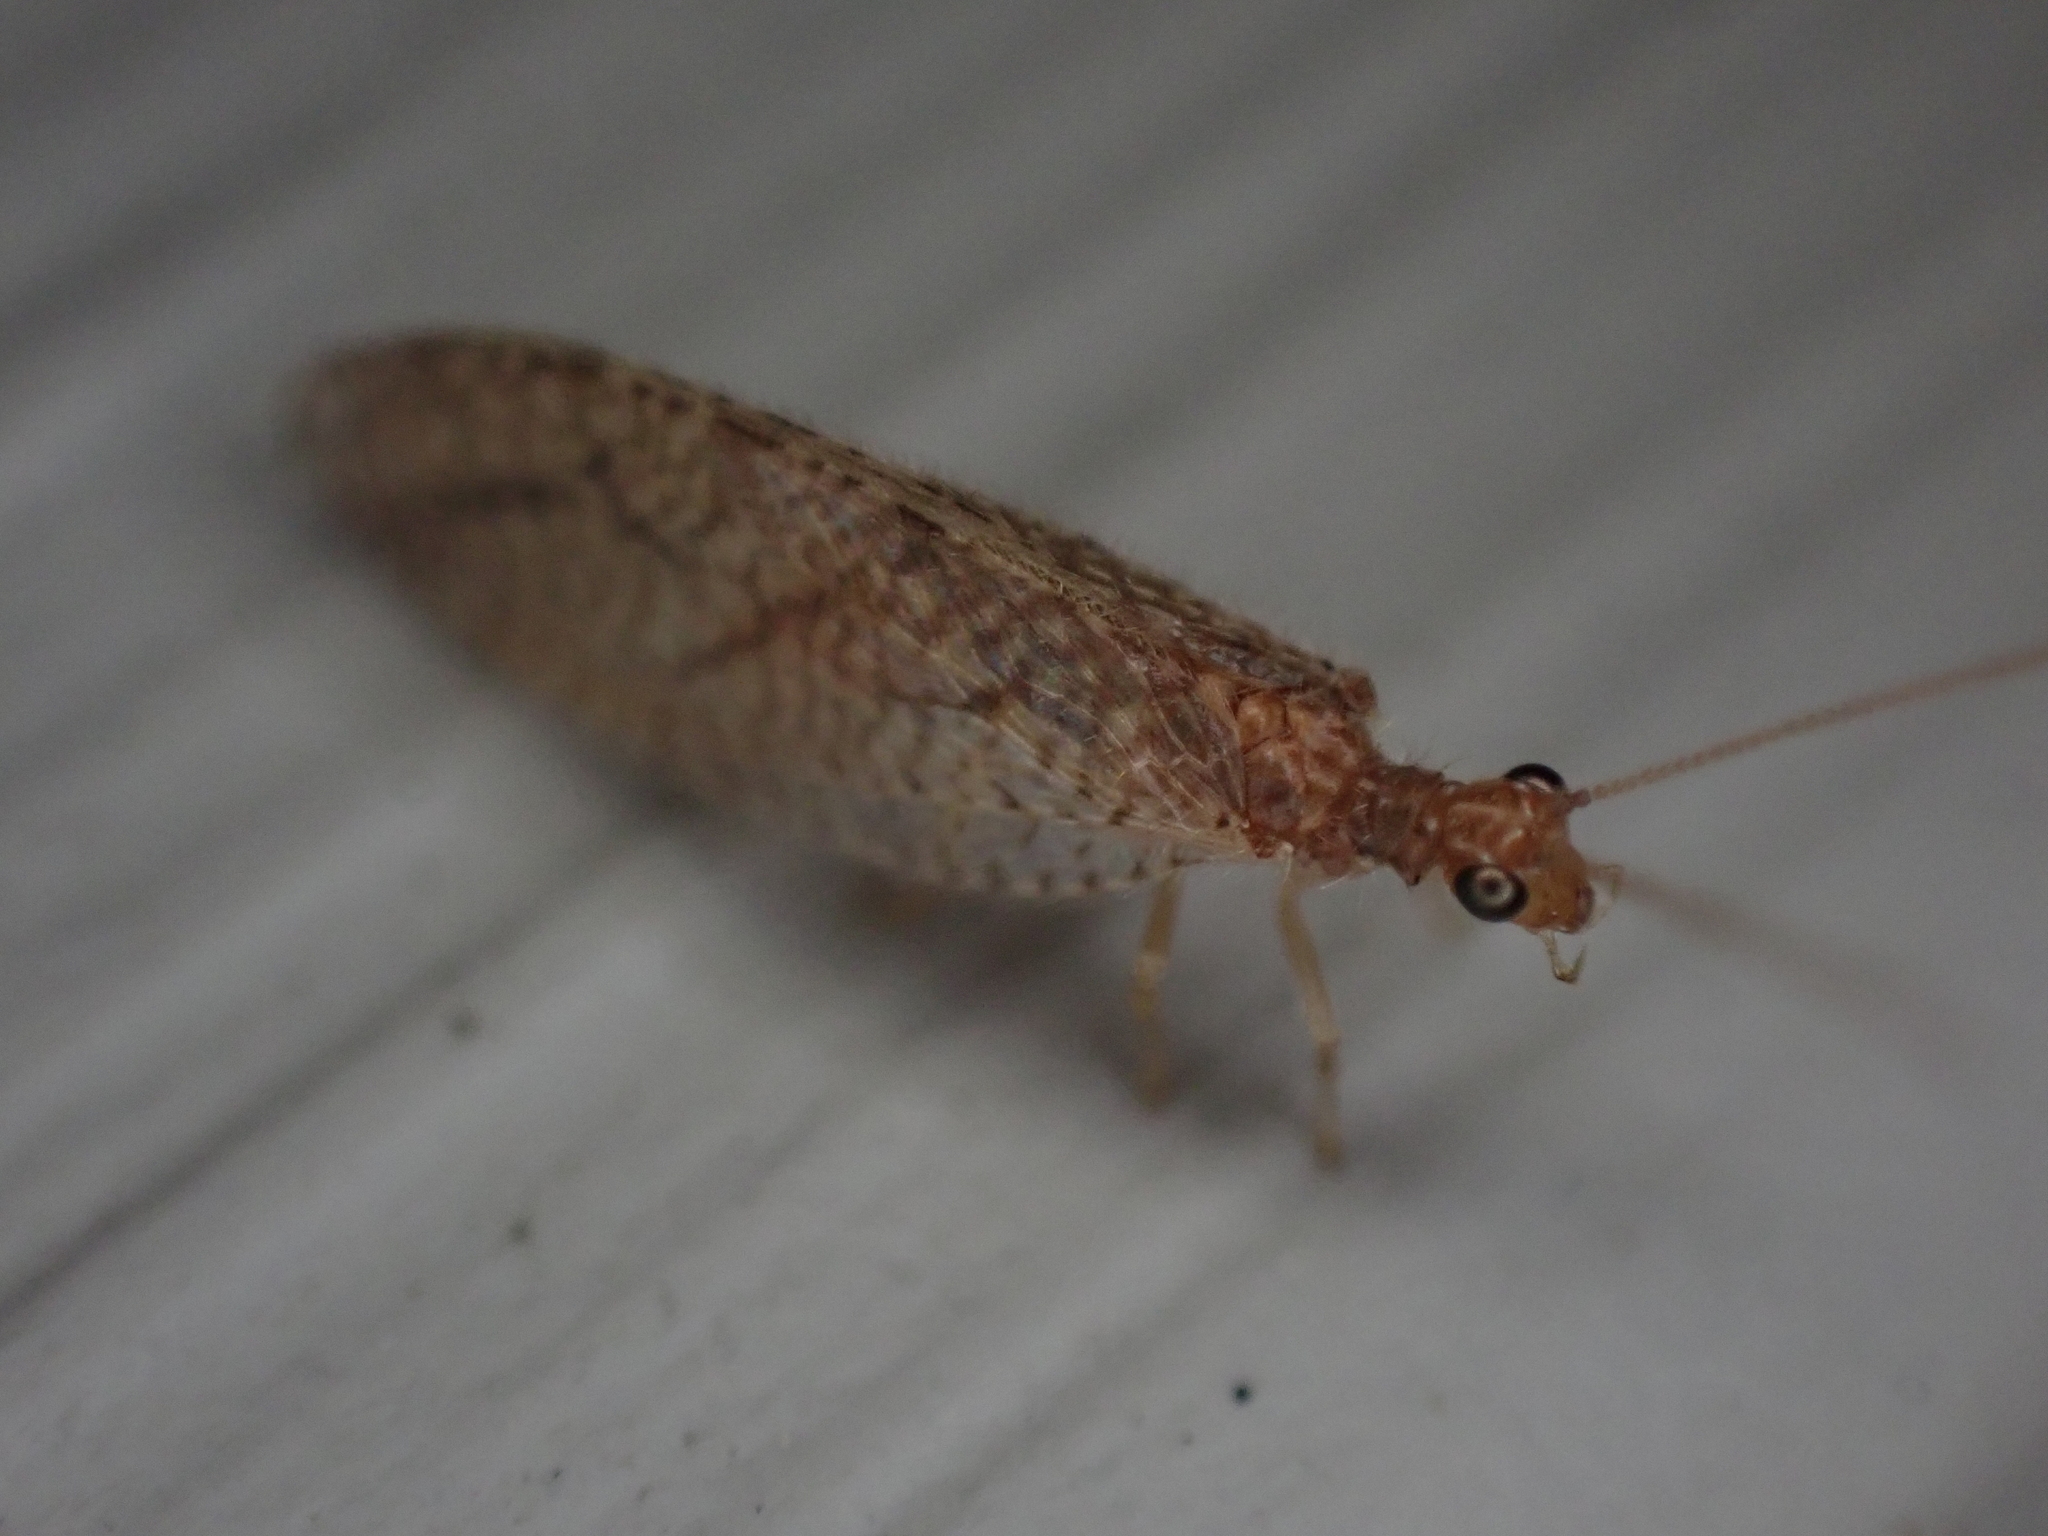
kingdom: Animalia
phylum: Arthropoda
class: Insecta
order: Neuroptera
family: Hemerobiidae
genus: Micromus
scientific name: Micromus posticus
